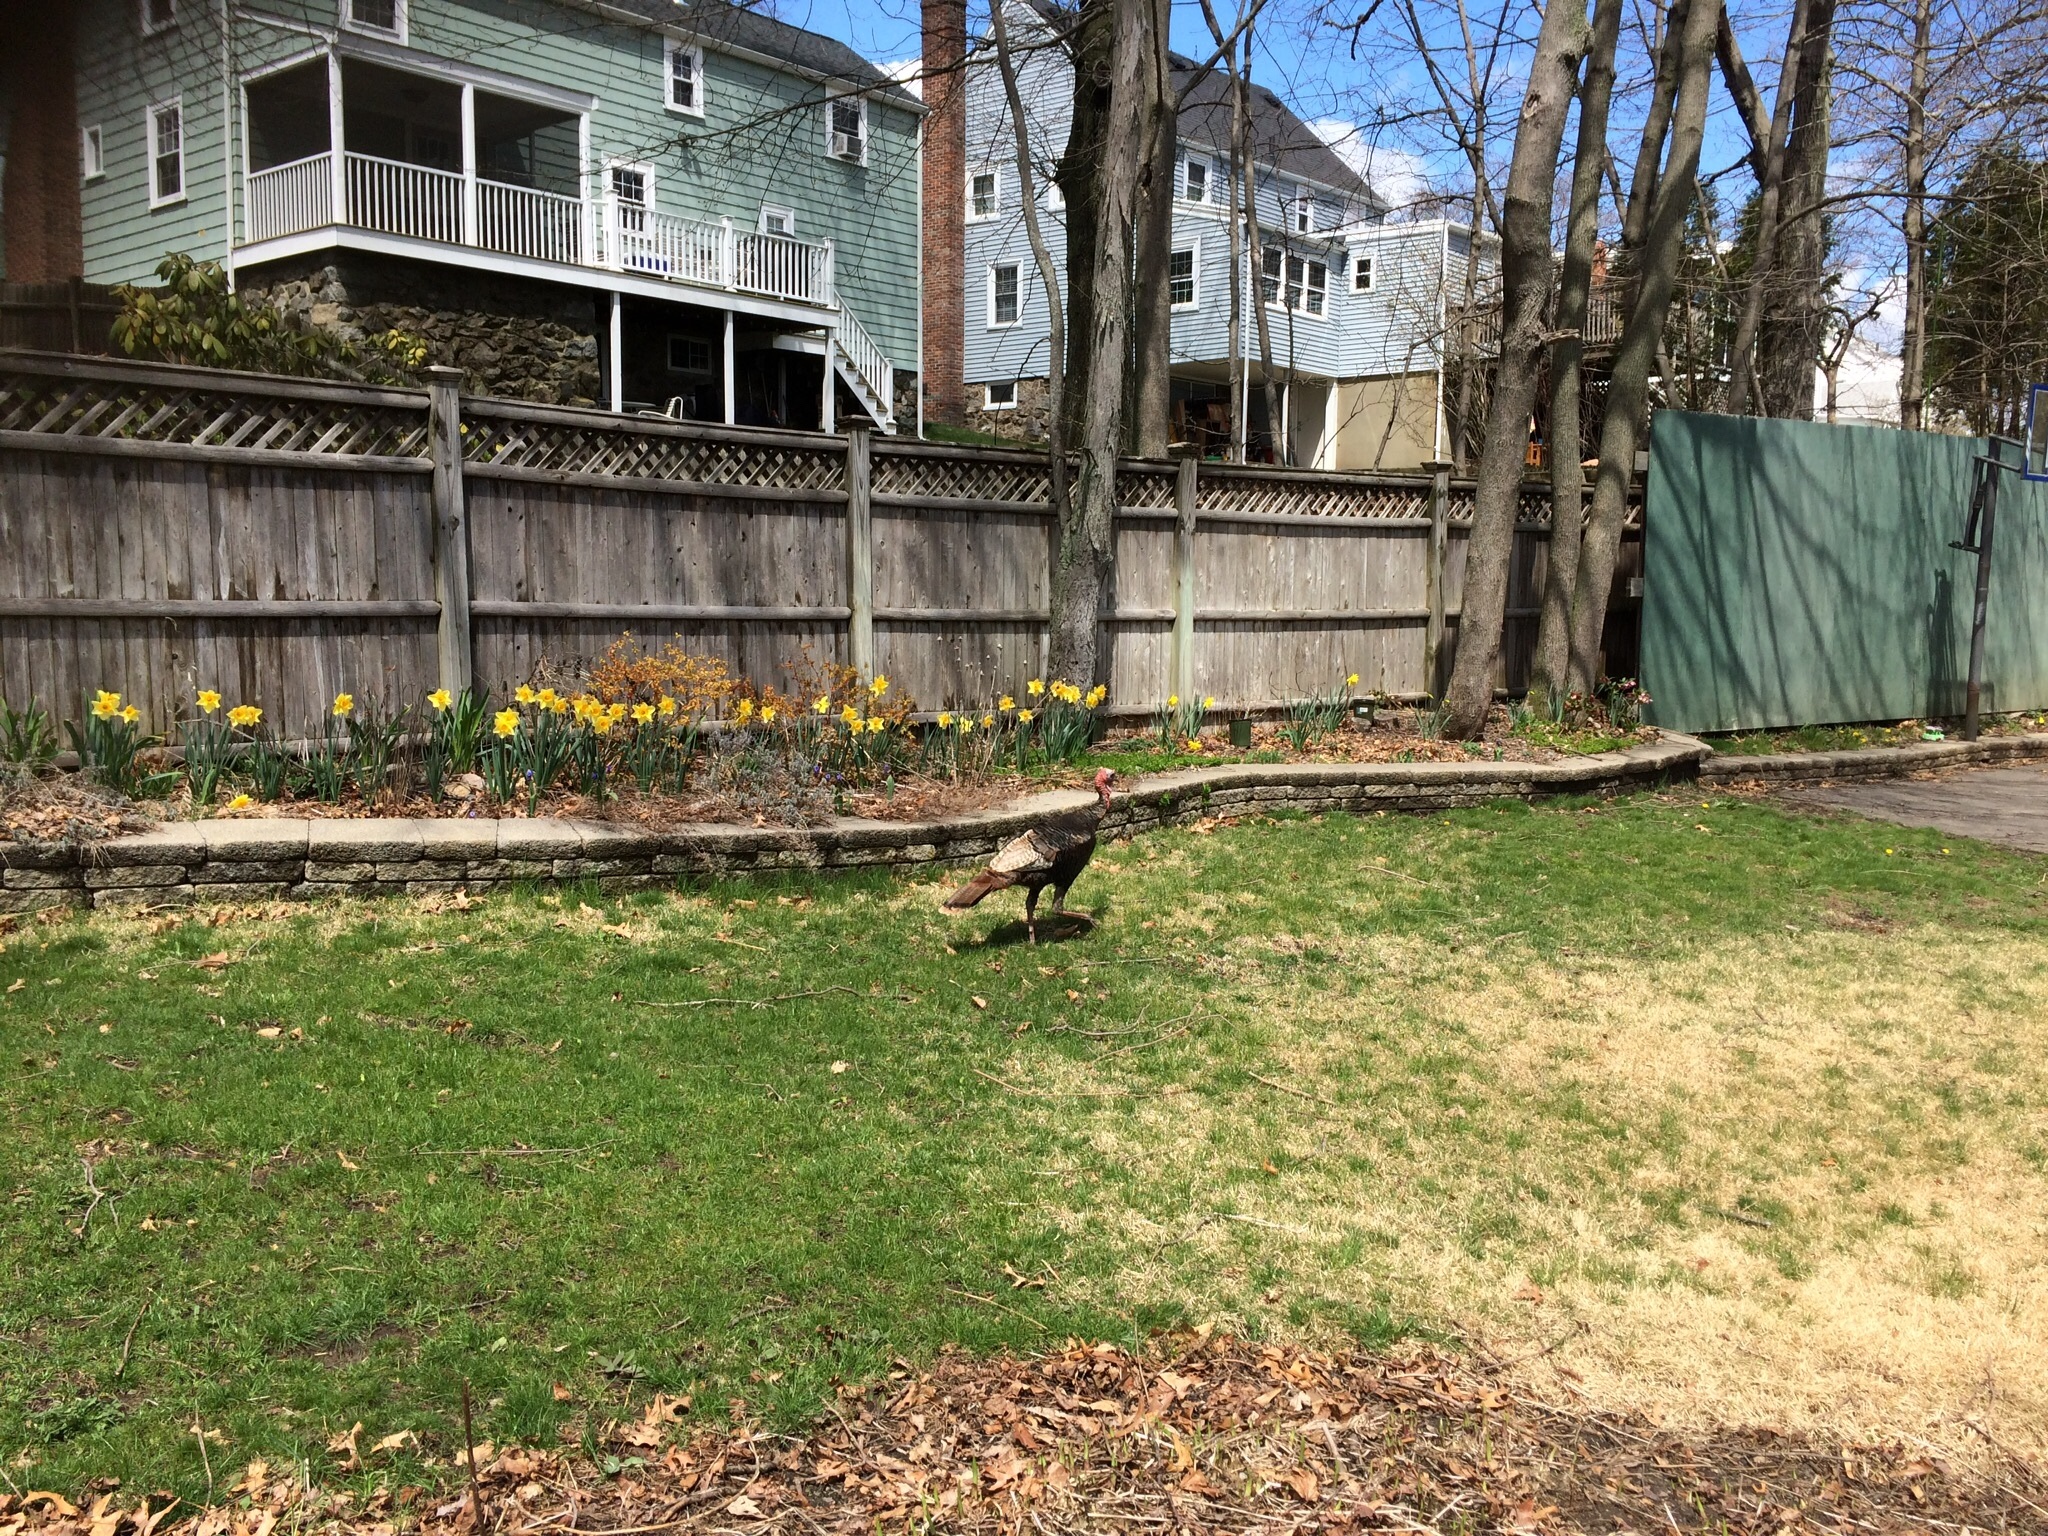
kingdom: Animalia
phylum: Chordata
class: Aves
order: Galliformes
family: Phasianidae
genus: Meleagris
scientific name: Meleagris gallopavo
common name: Wild turkey
